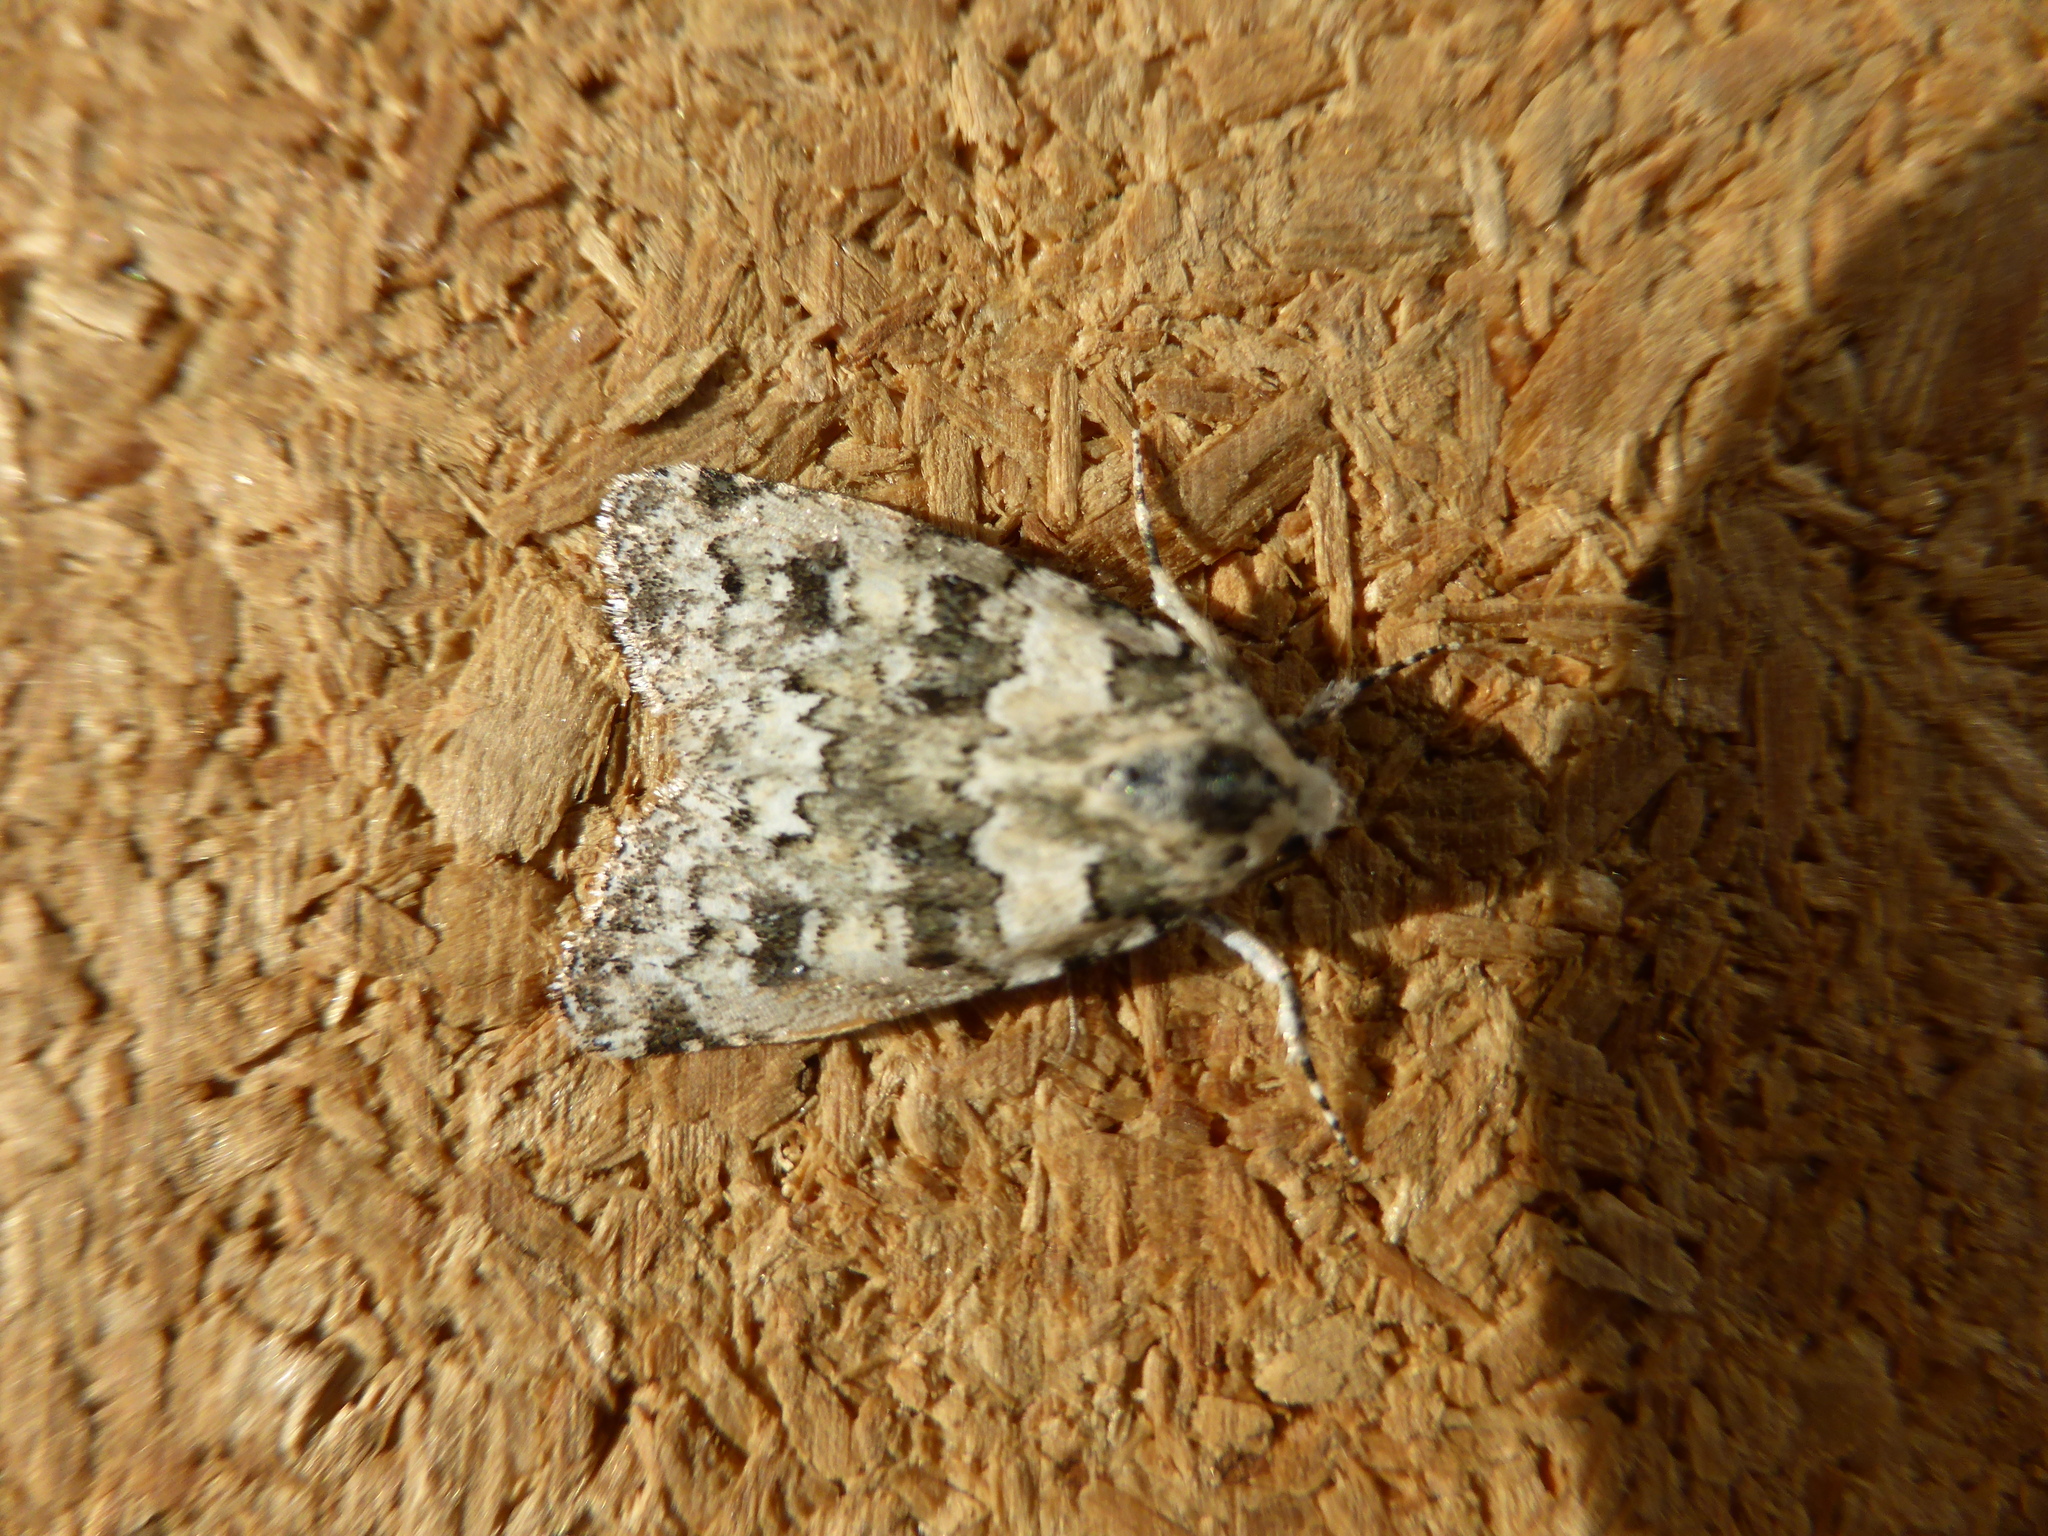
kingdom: Animalia
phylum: Arthropoda
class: Insecta
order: Lepidoptera
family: Noctuidae
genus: Bryophila
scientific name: Bryophila domestica
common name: Marbled beauty
